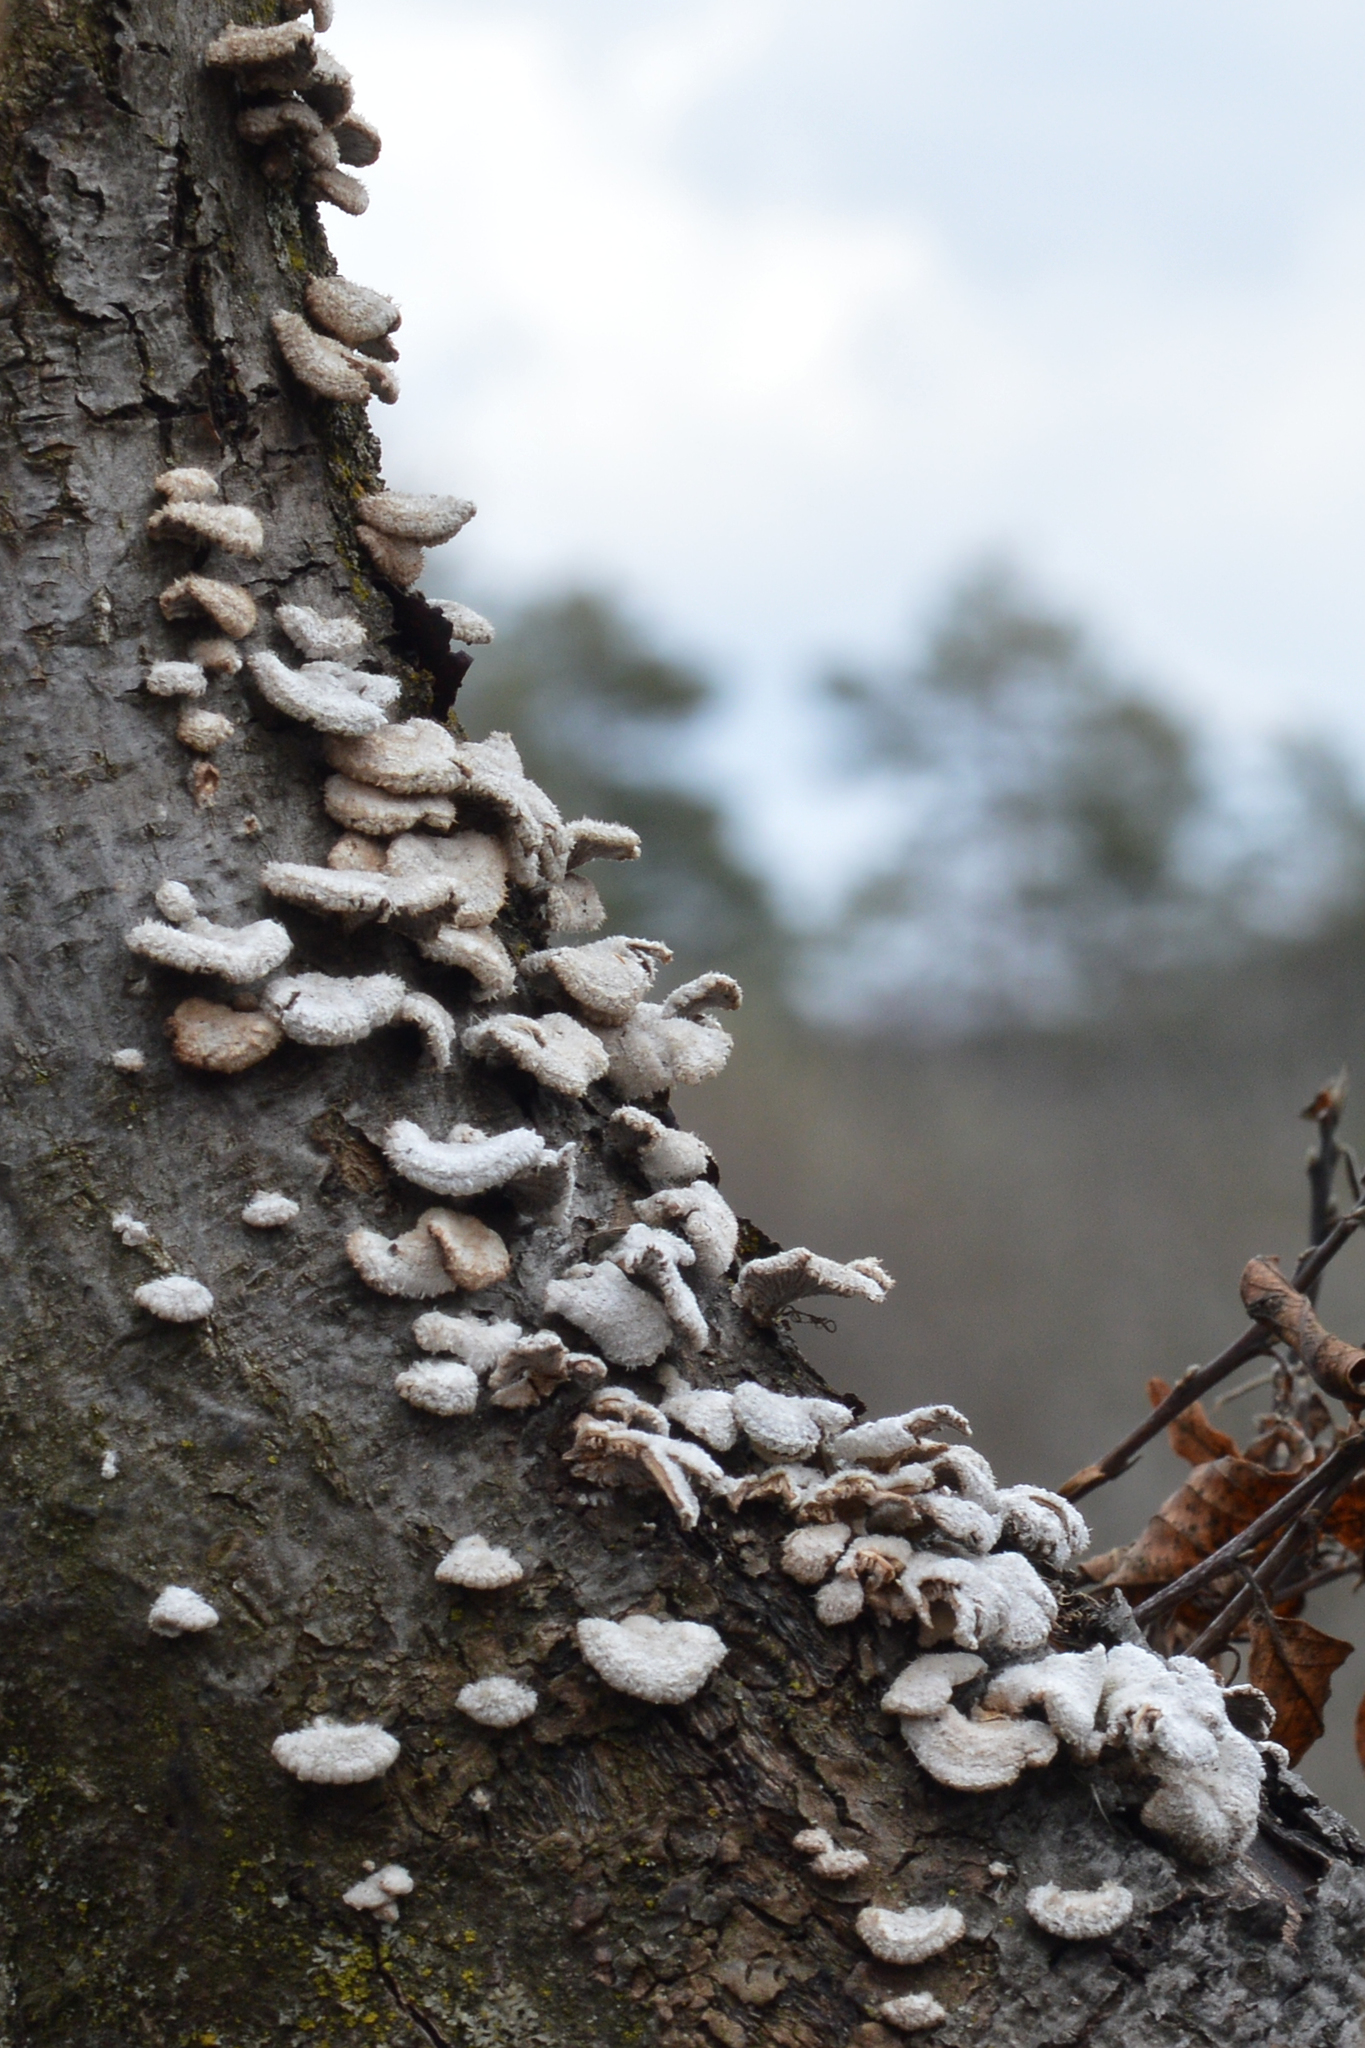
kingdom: Fungi
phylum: Basidiomycota
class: Agaricomycetes
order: Agaricales
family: Schizophyllaceae
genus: Schizophyllum
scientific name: Schizophyllum commune
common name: Common porecrust
